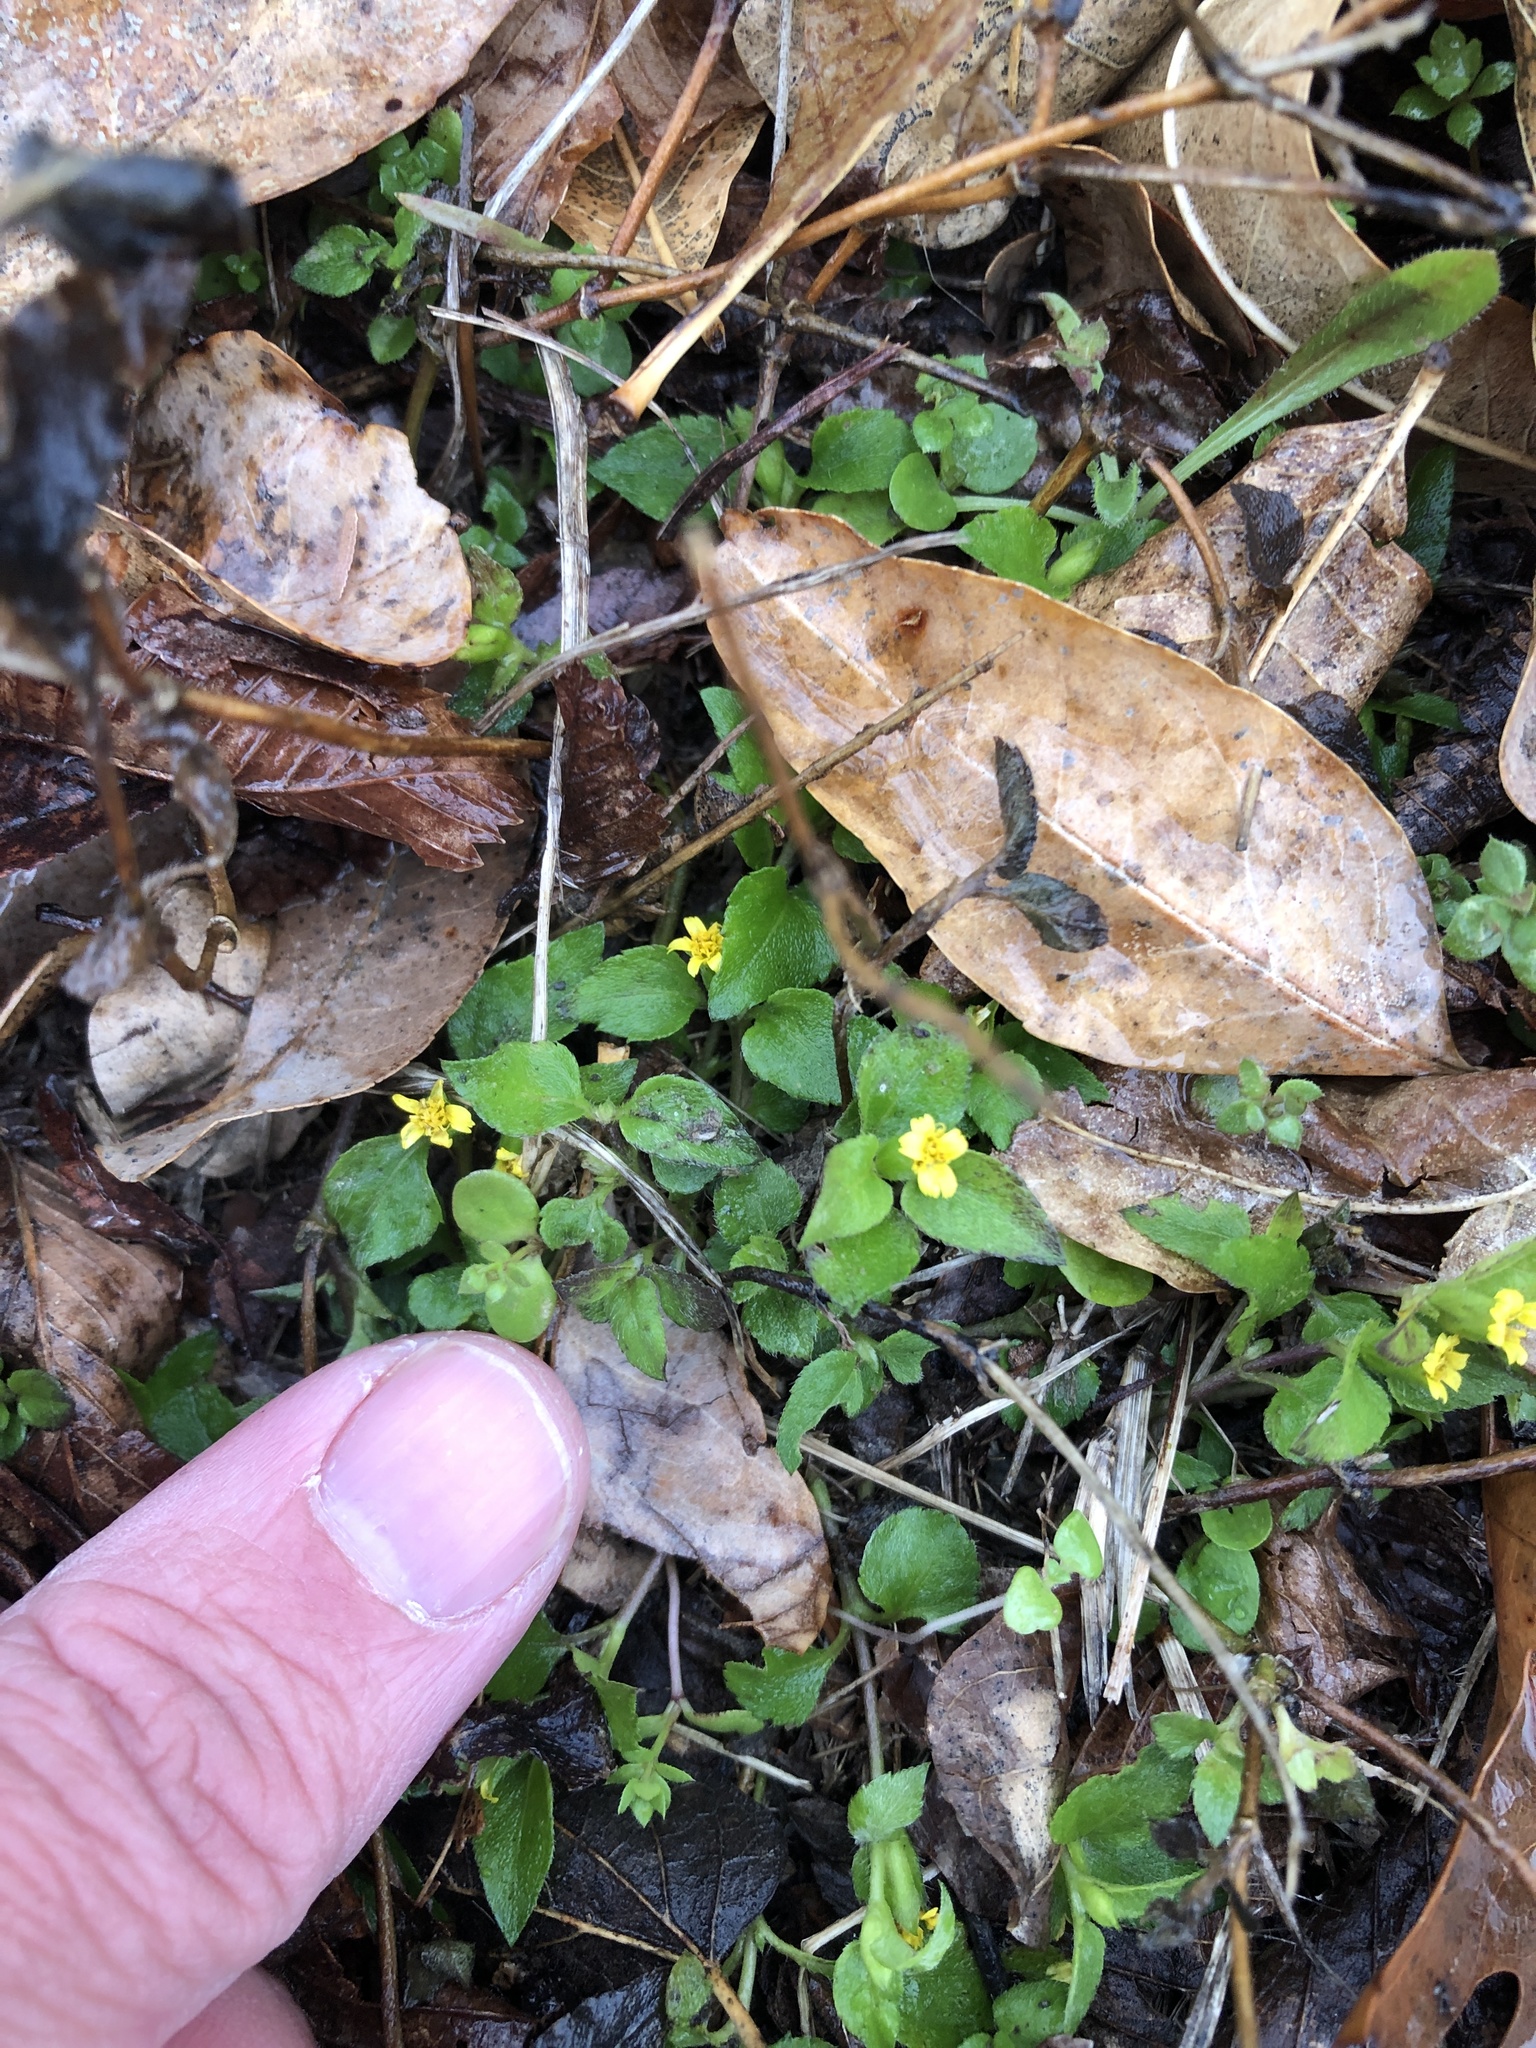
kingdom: Plantae
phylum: Tracheophyta
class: Magnoliopsida
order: Asterales
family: Asteraceae
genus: Calyptocarpus
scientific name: Calyptocarpus vialis
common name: Straggler daisy
